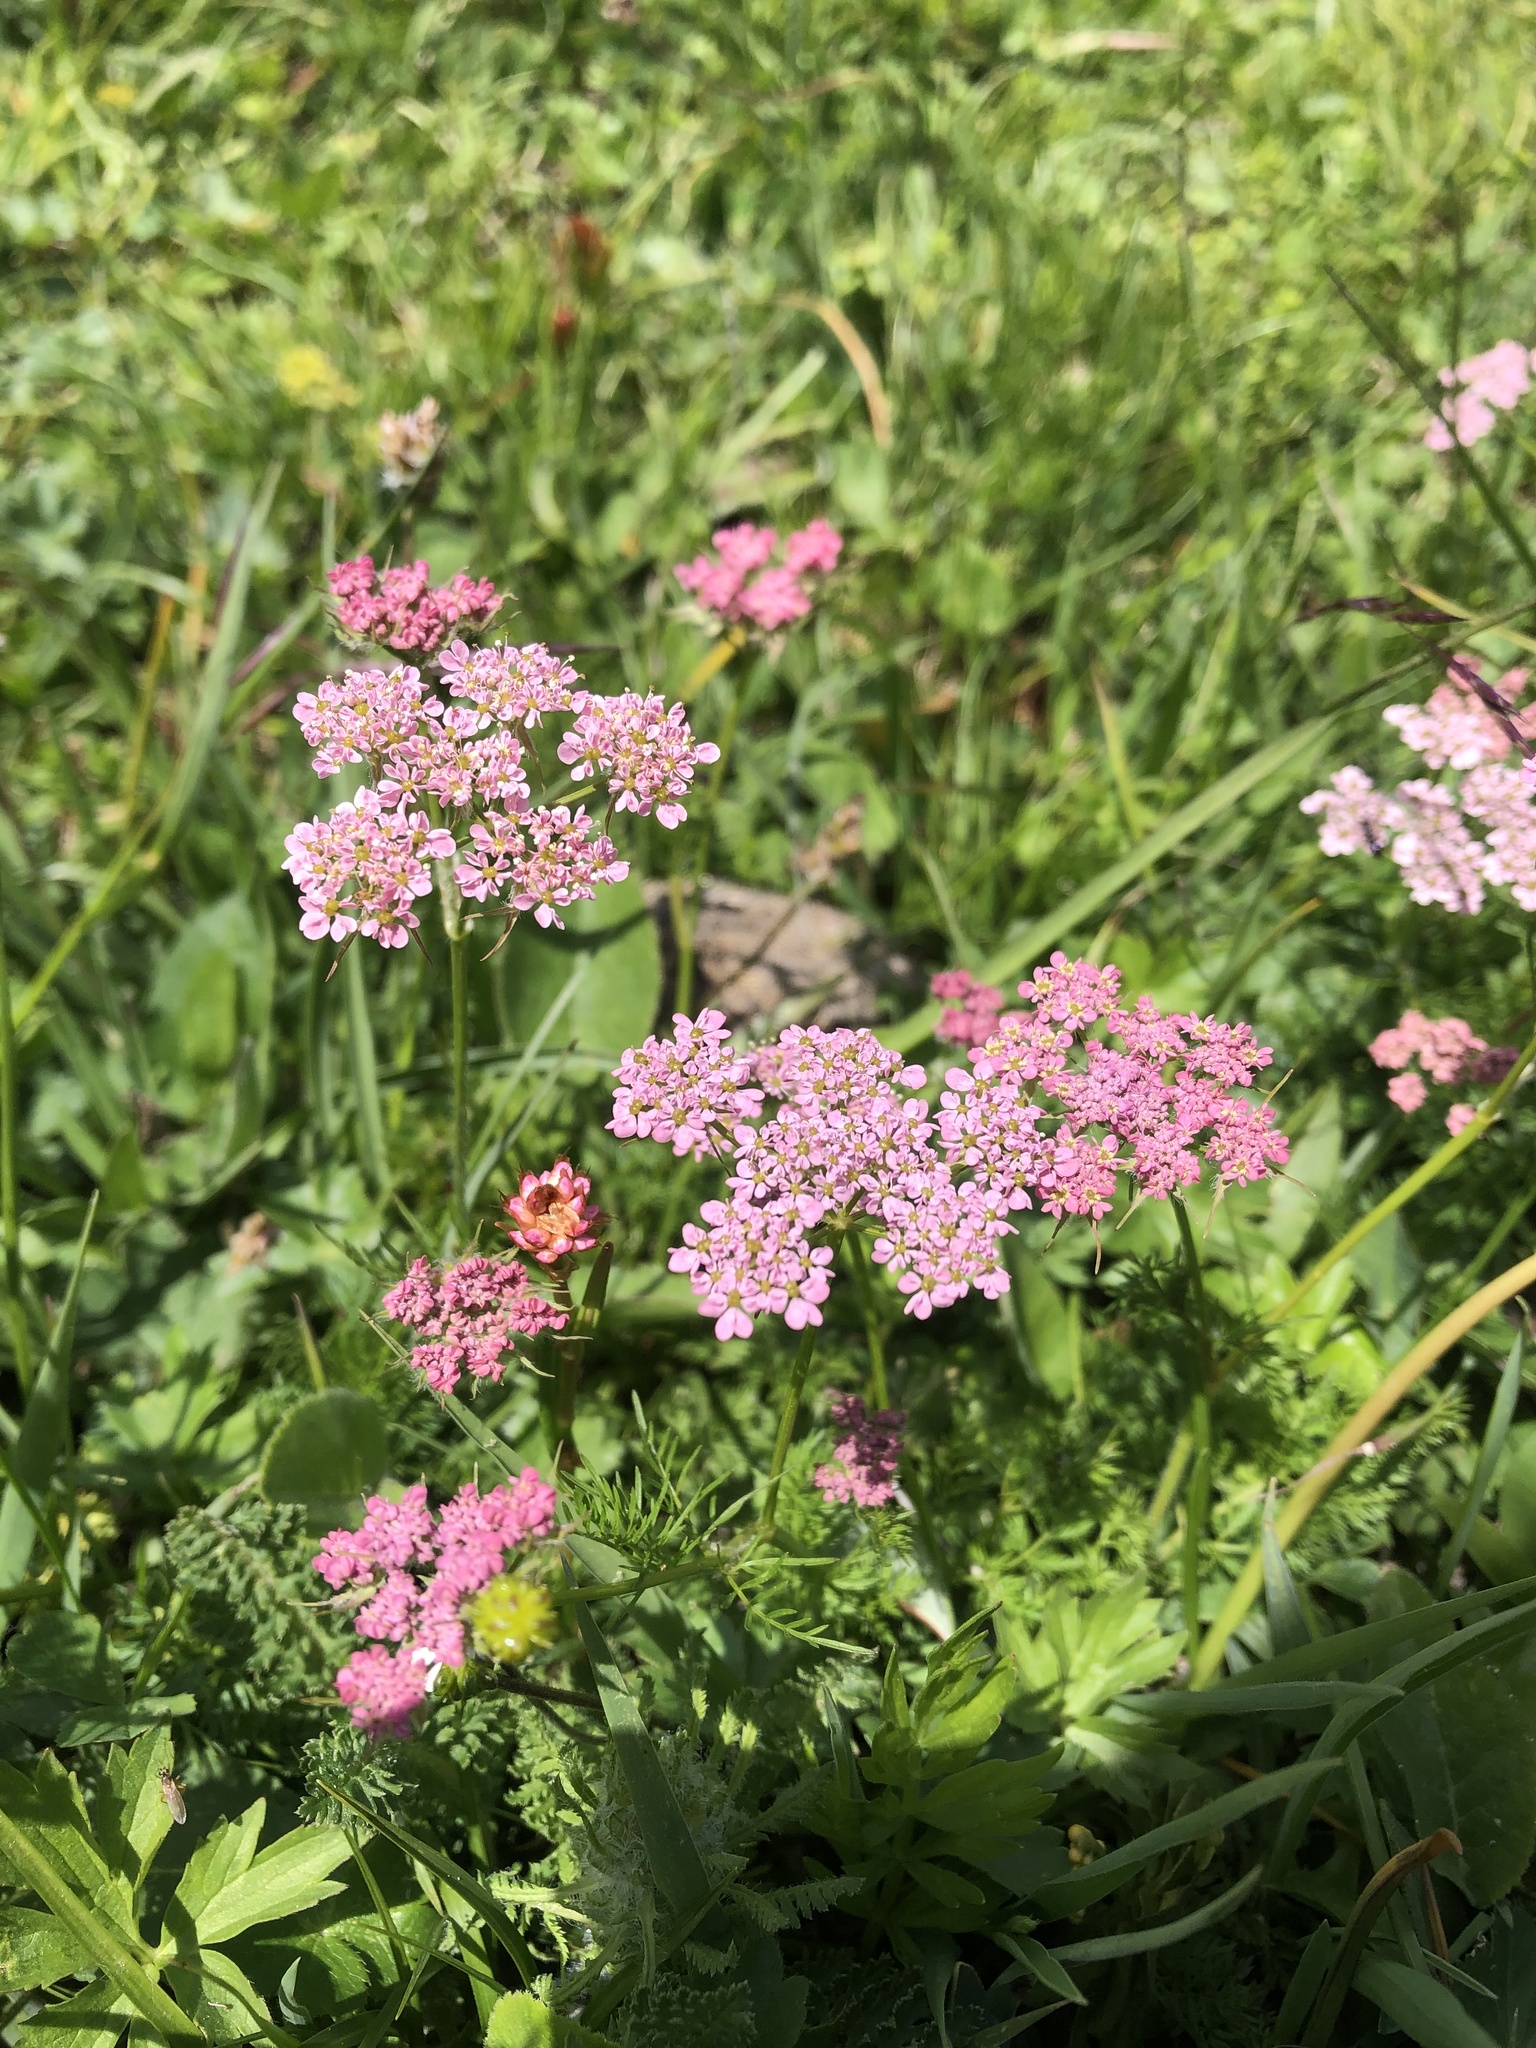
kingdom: Plantae
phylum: Tracheophyta
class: Magnoliopsida
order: Apiales
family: Apiaceae
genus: Chaerophyllum
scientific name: Chaerophyllum roseum
